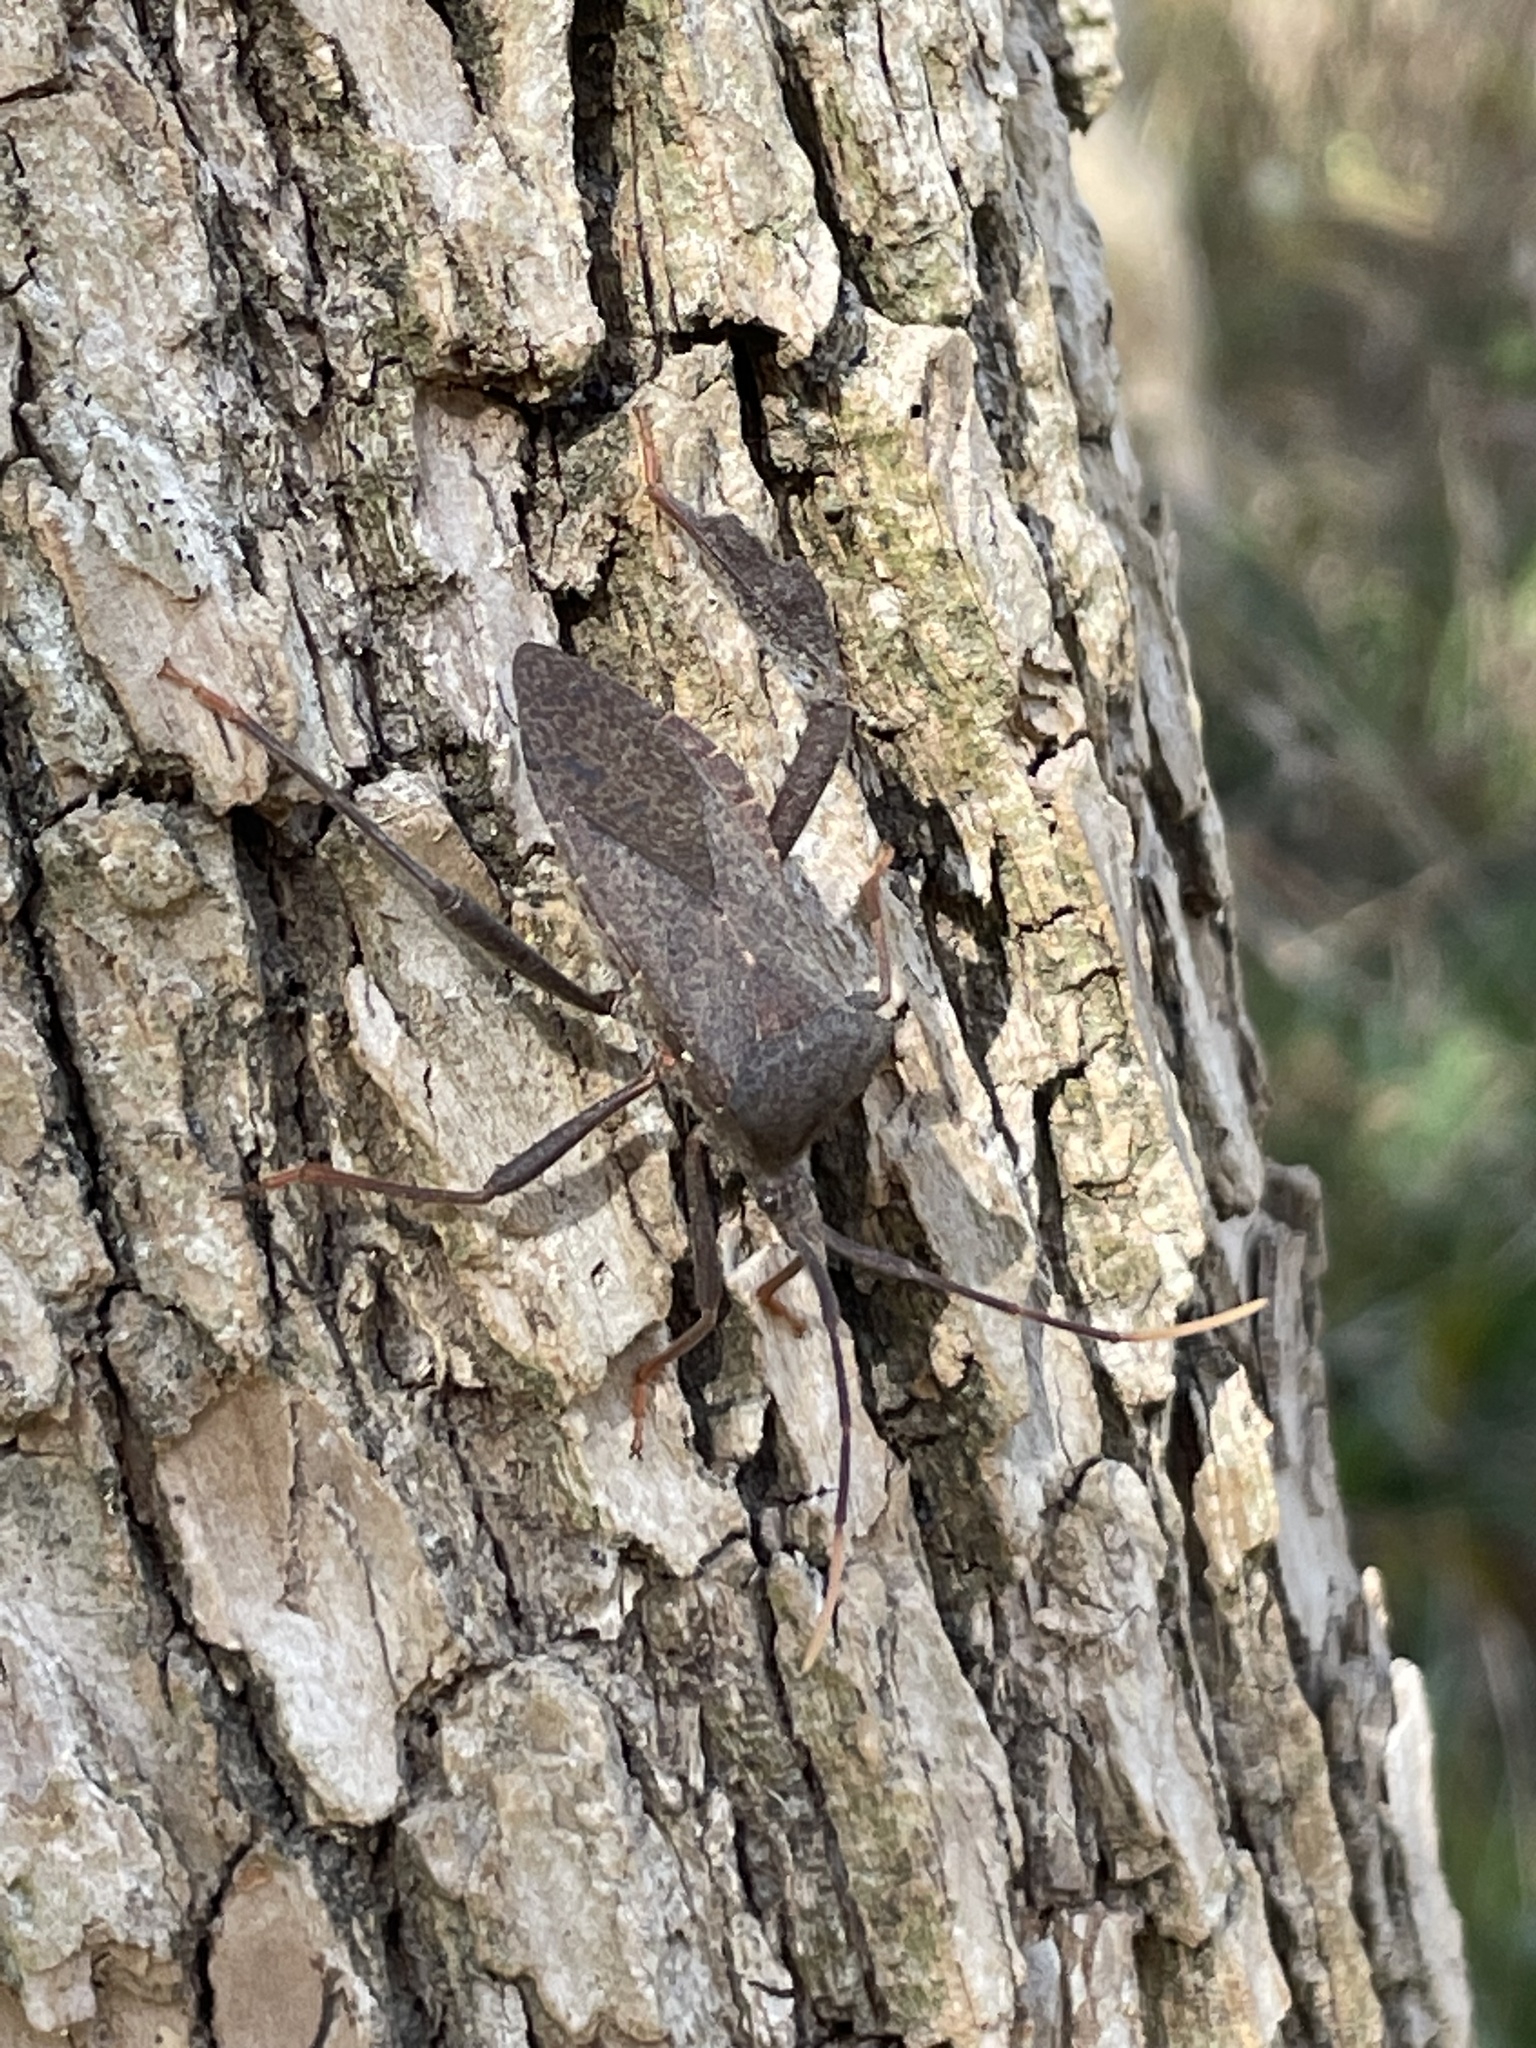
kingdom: Animalia
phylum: Arthropoda
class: Insecta
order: Hemiptera
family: Coreidae
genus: Acanthocephala
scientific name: Acanthocephala terminalis
